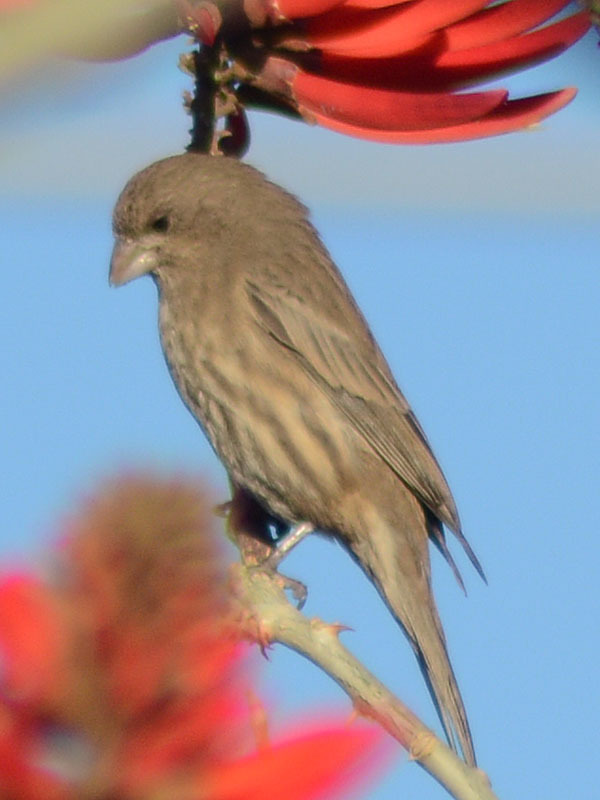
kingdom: Animalia
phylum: Chordata
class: Aves
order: Passeriformes
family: Fringillidae
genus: Haemorhous
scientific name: Haemorhous mexicanus
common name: House finch
